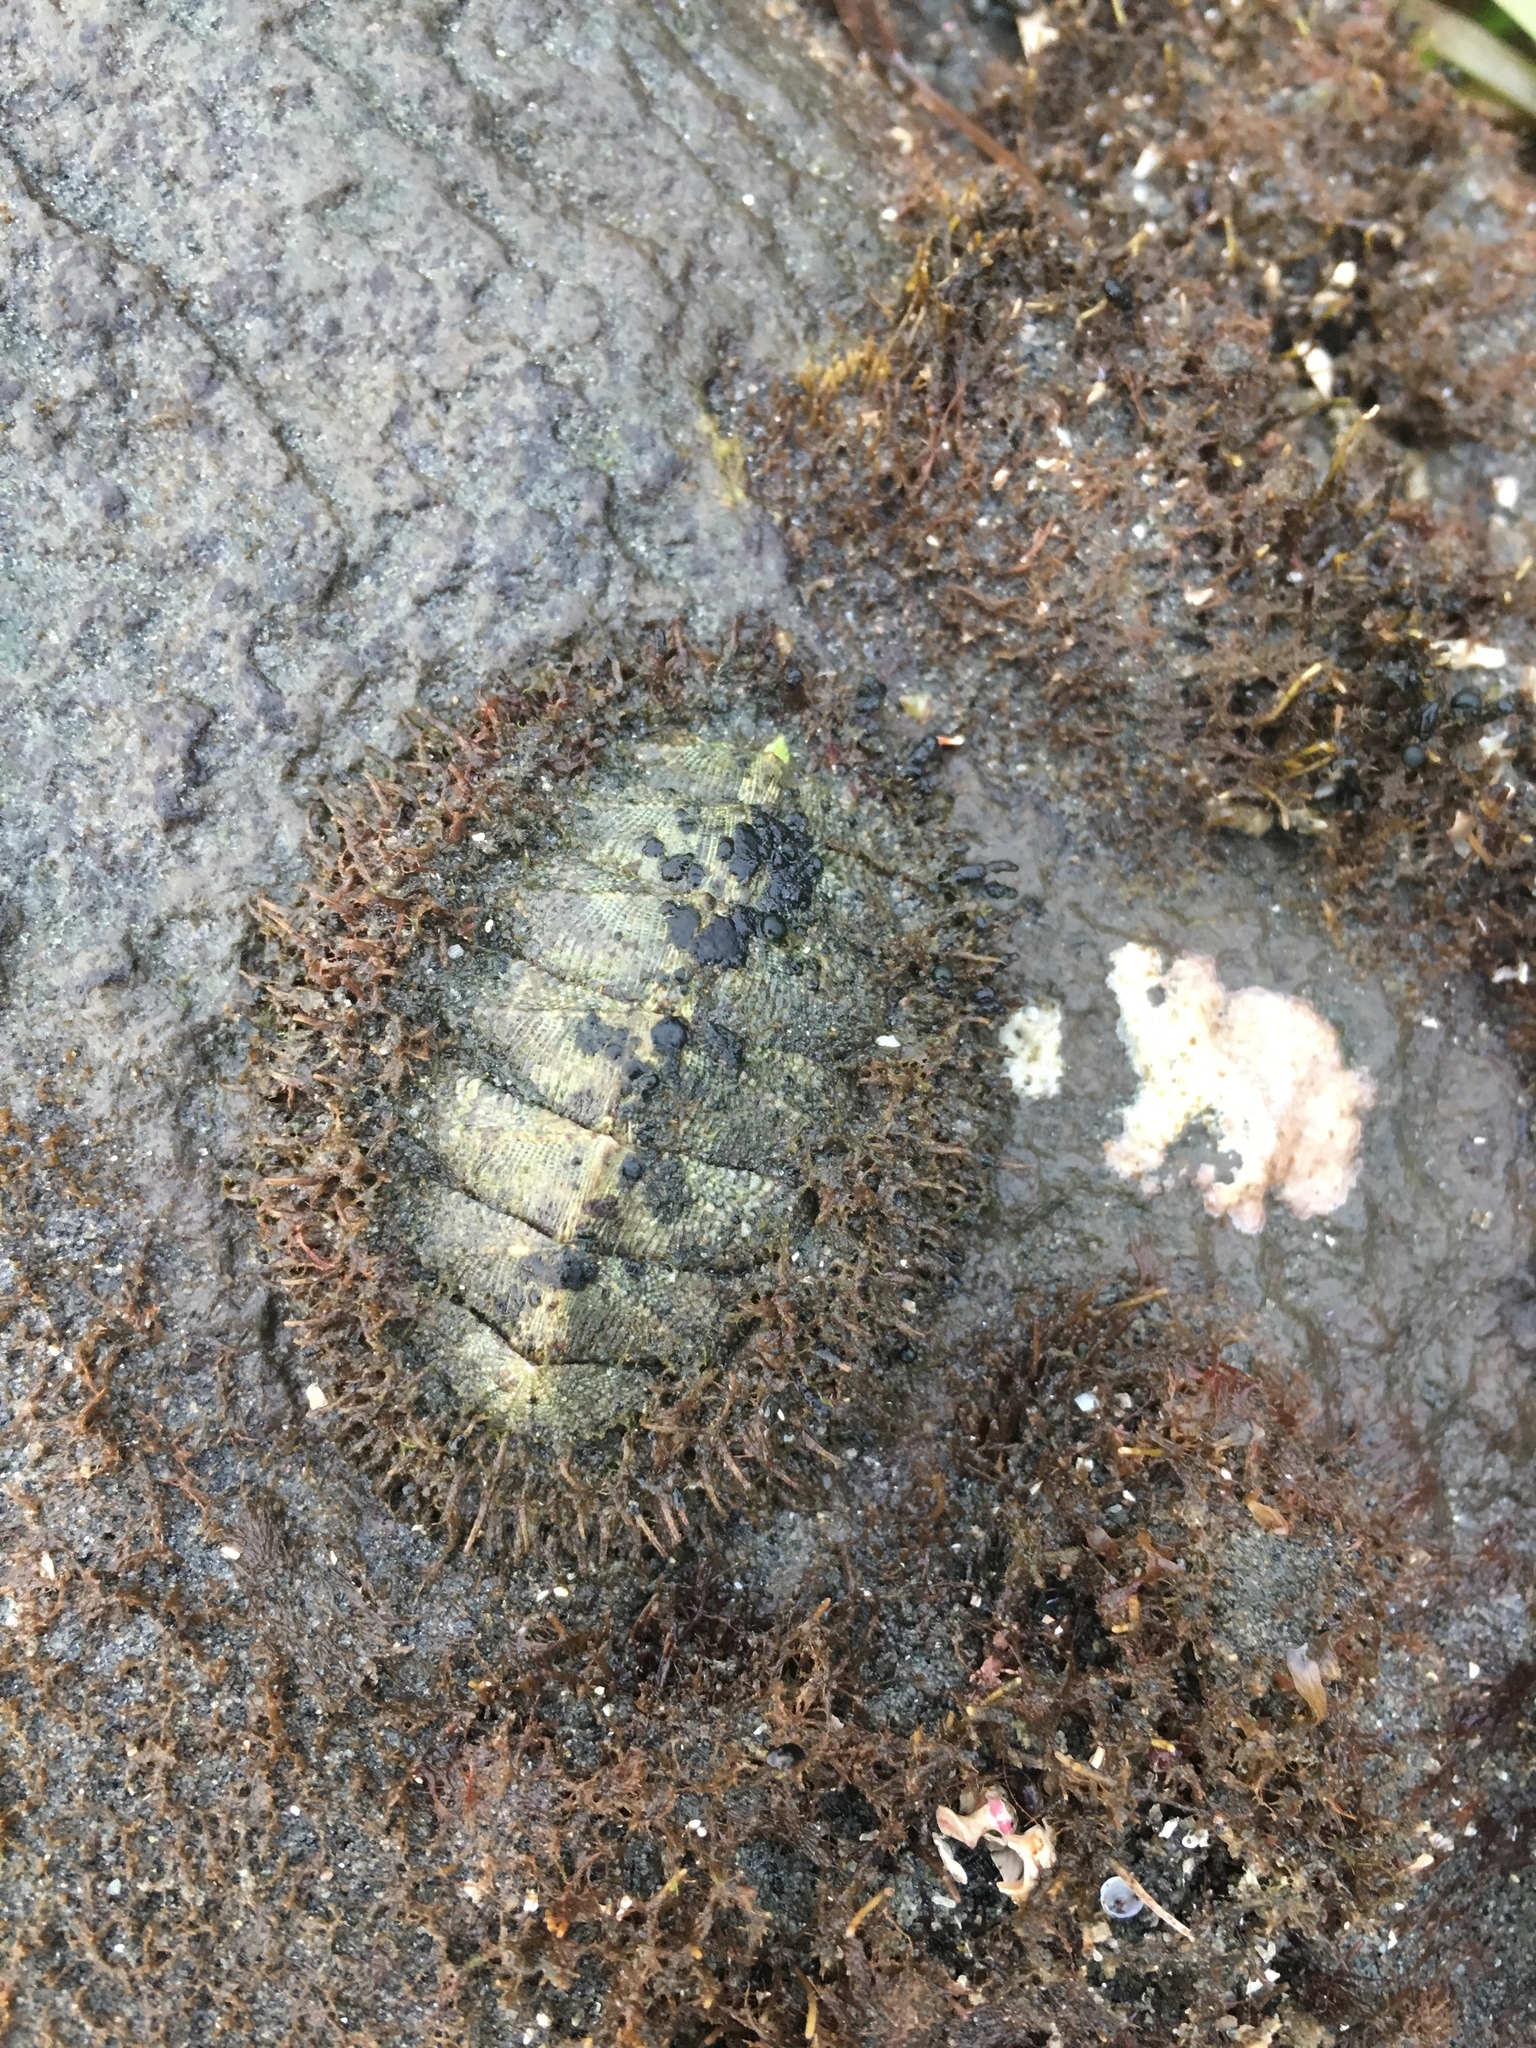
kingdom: Animalia
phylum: Mollusca
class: Polyplacophora
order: Chitonida
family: Mopaliidae
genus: Mopalia
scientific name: Mopalia muscosa
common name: Mossy chiton
